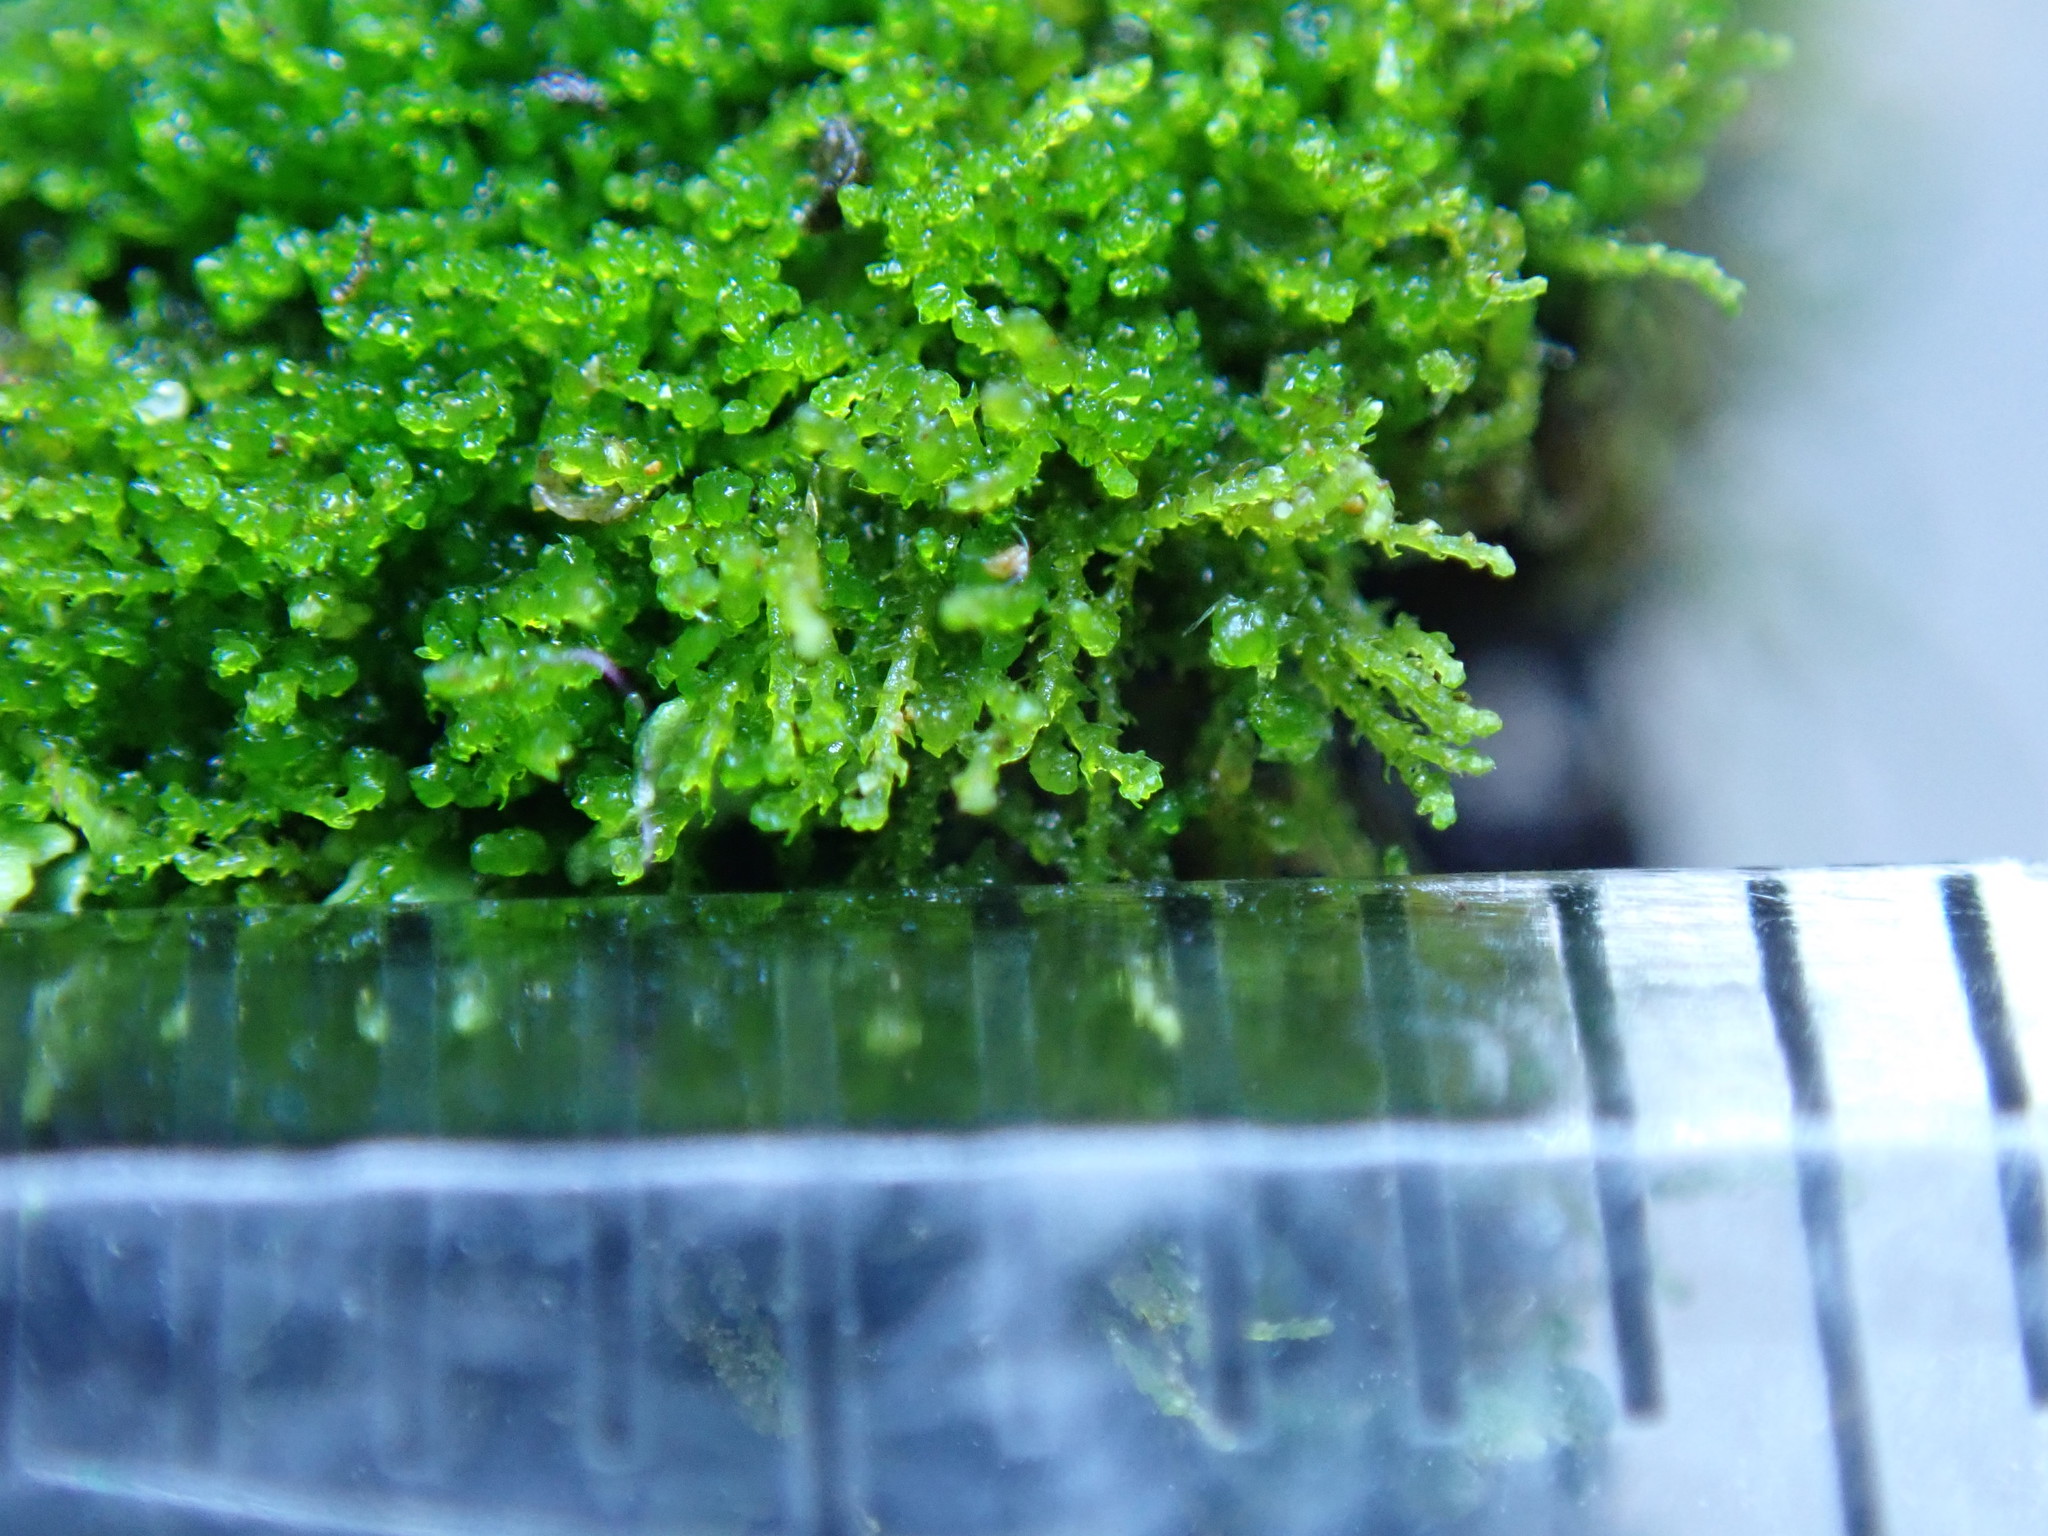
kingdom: Plantae
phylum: Marchantiophyta
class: Jungermanniopsida
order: Jungermanniales
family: Cephaloziellaceae
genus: Cephaloziella
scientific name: Cephaloziella divaricata
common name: Spreading threadwort
